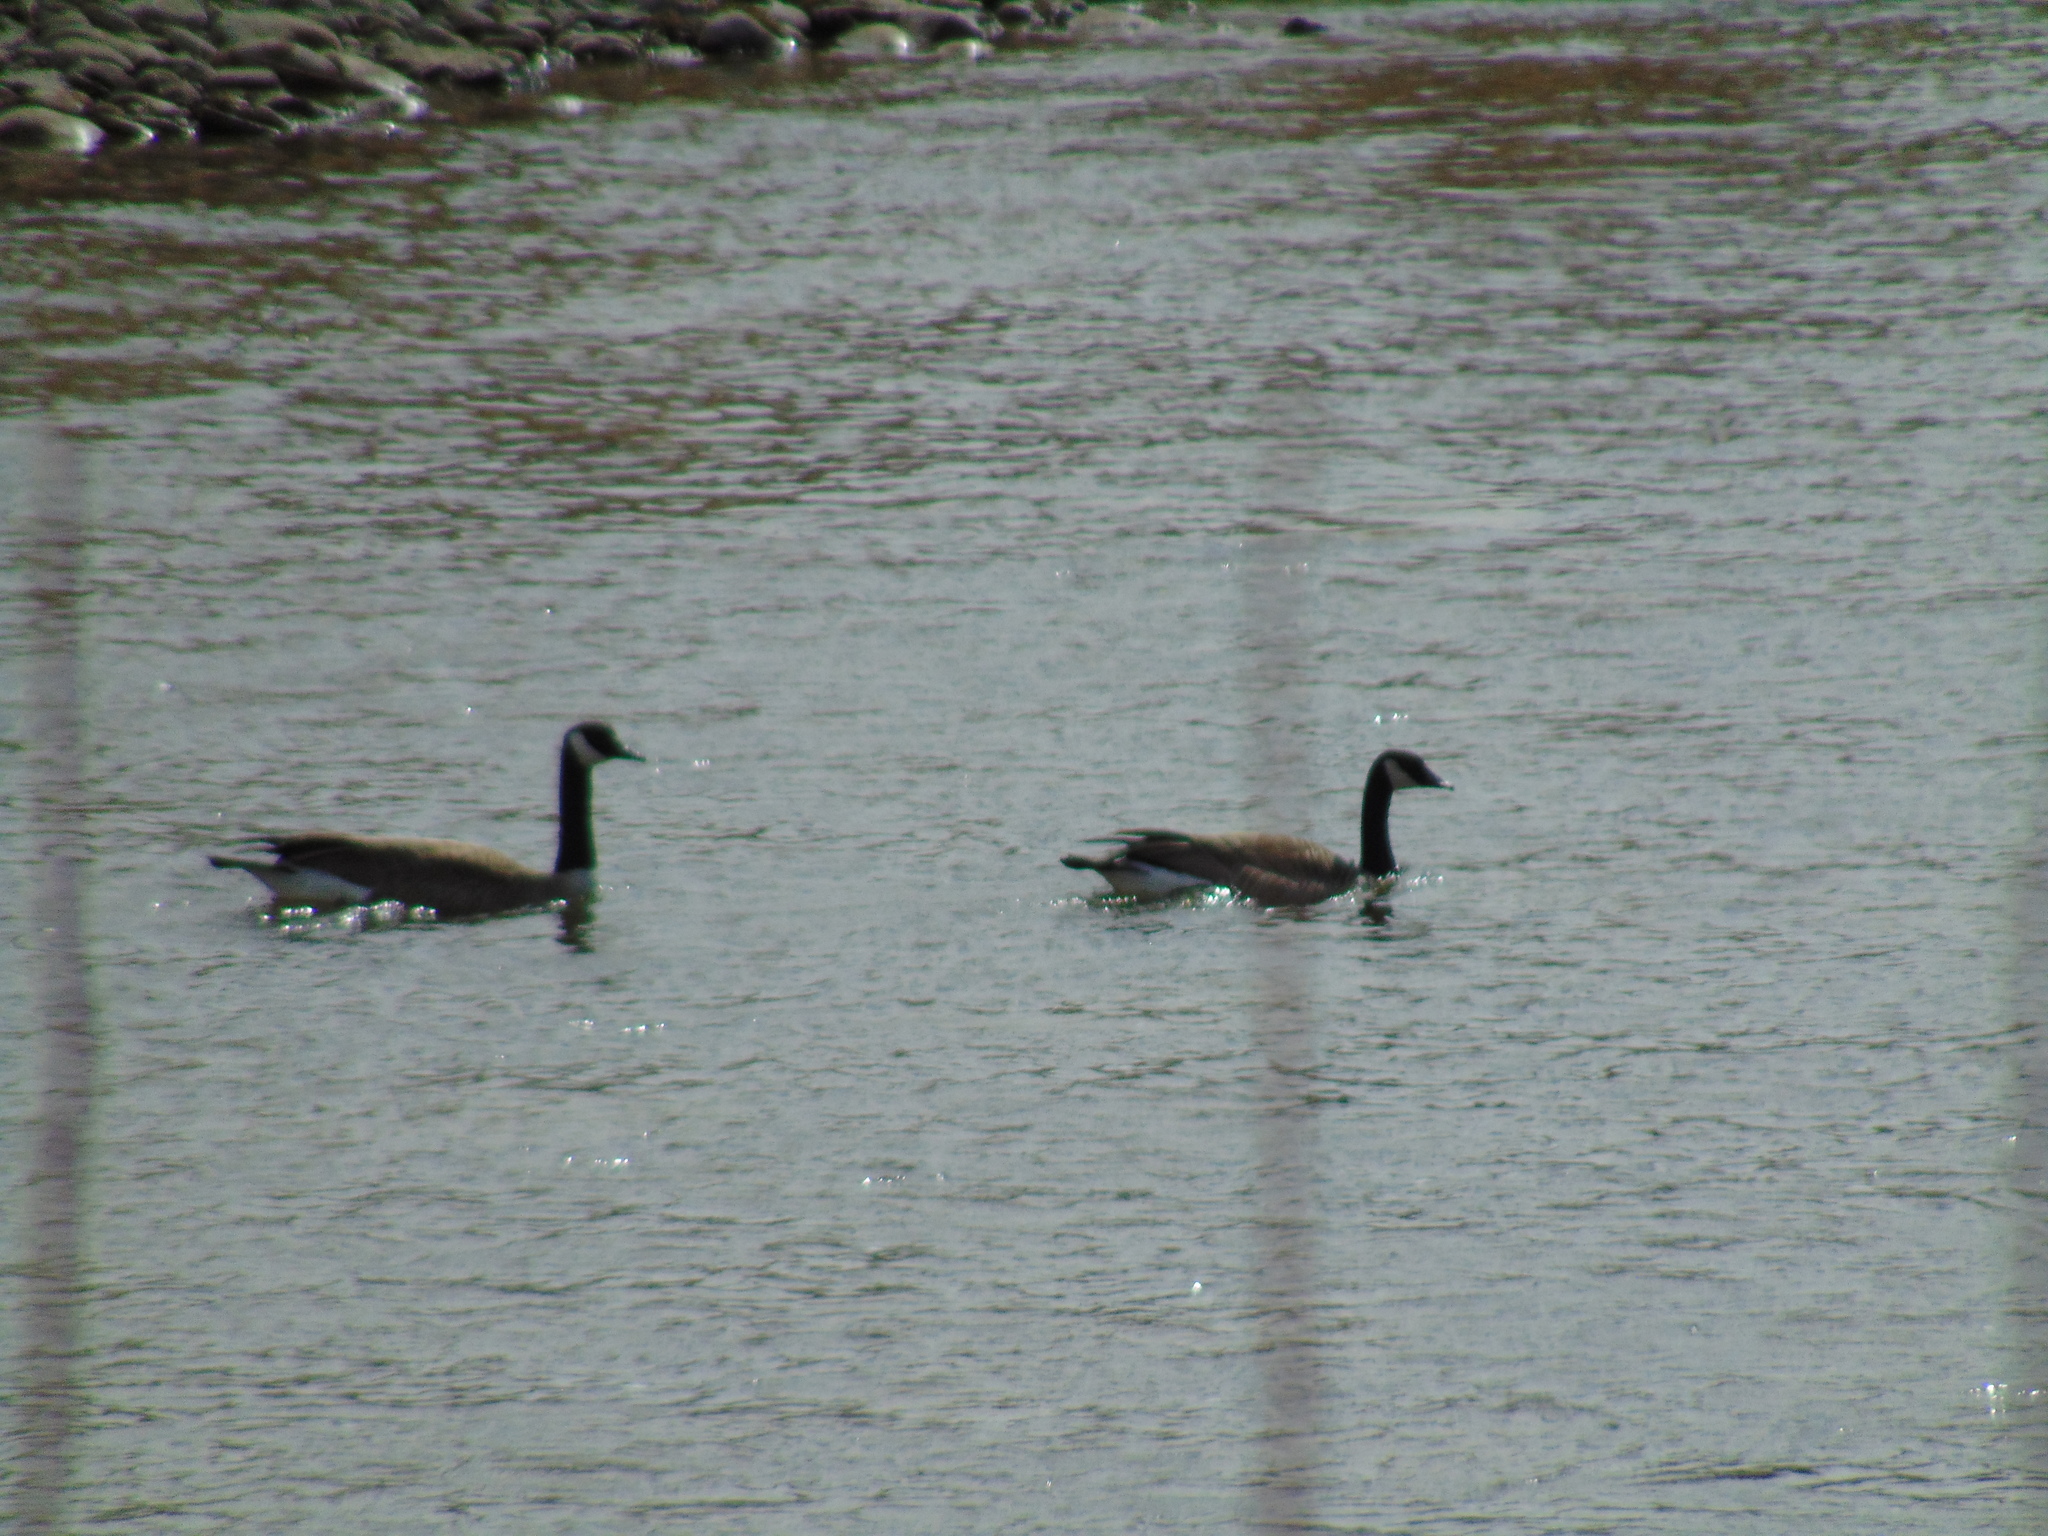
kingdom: Animalia
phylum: Chordata
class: Aves
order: Anseriformes
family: Anatidae
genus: Branta
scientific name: Branta canadensis
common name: Canada goose
